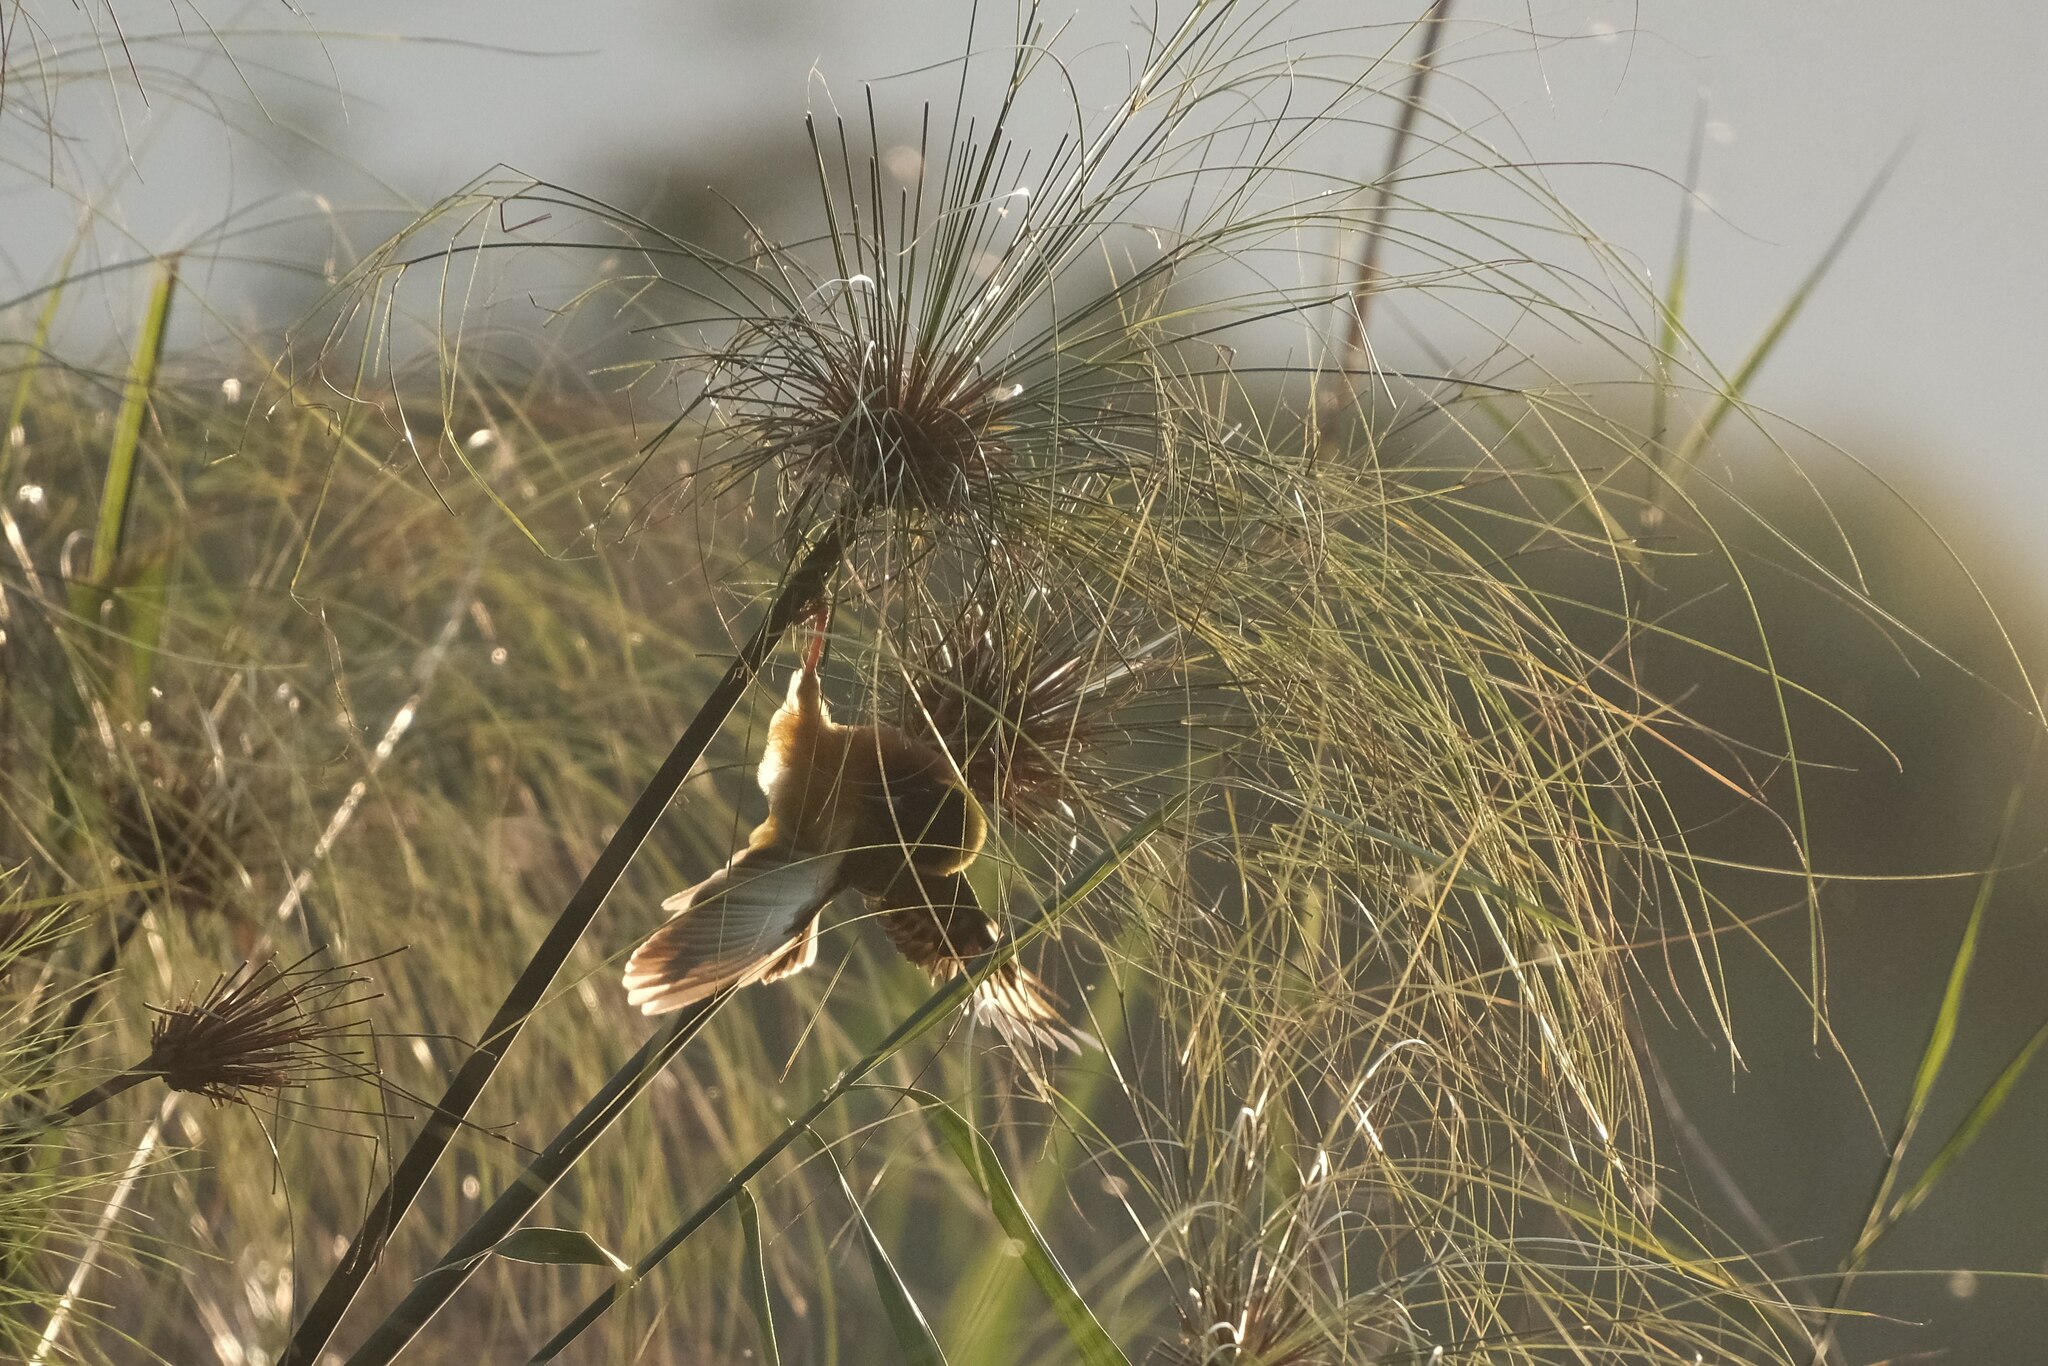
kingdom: Animalia
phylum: Chordata
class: Aves
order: Passeriformes
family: Ploceidae
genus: Ploceus
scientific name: Ploceus melanocephalus
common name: Black-headed weaver
